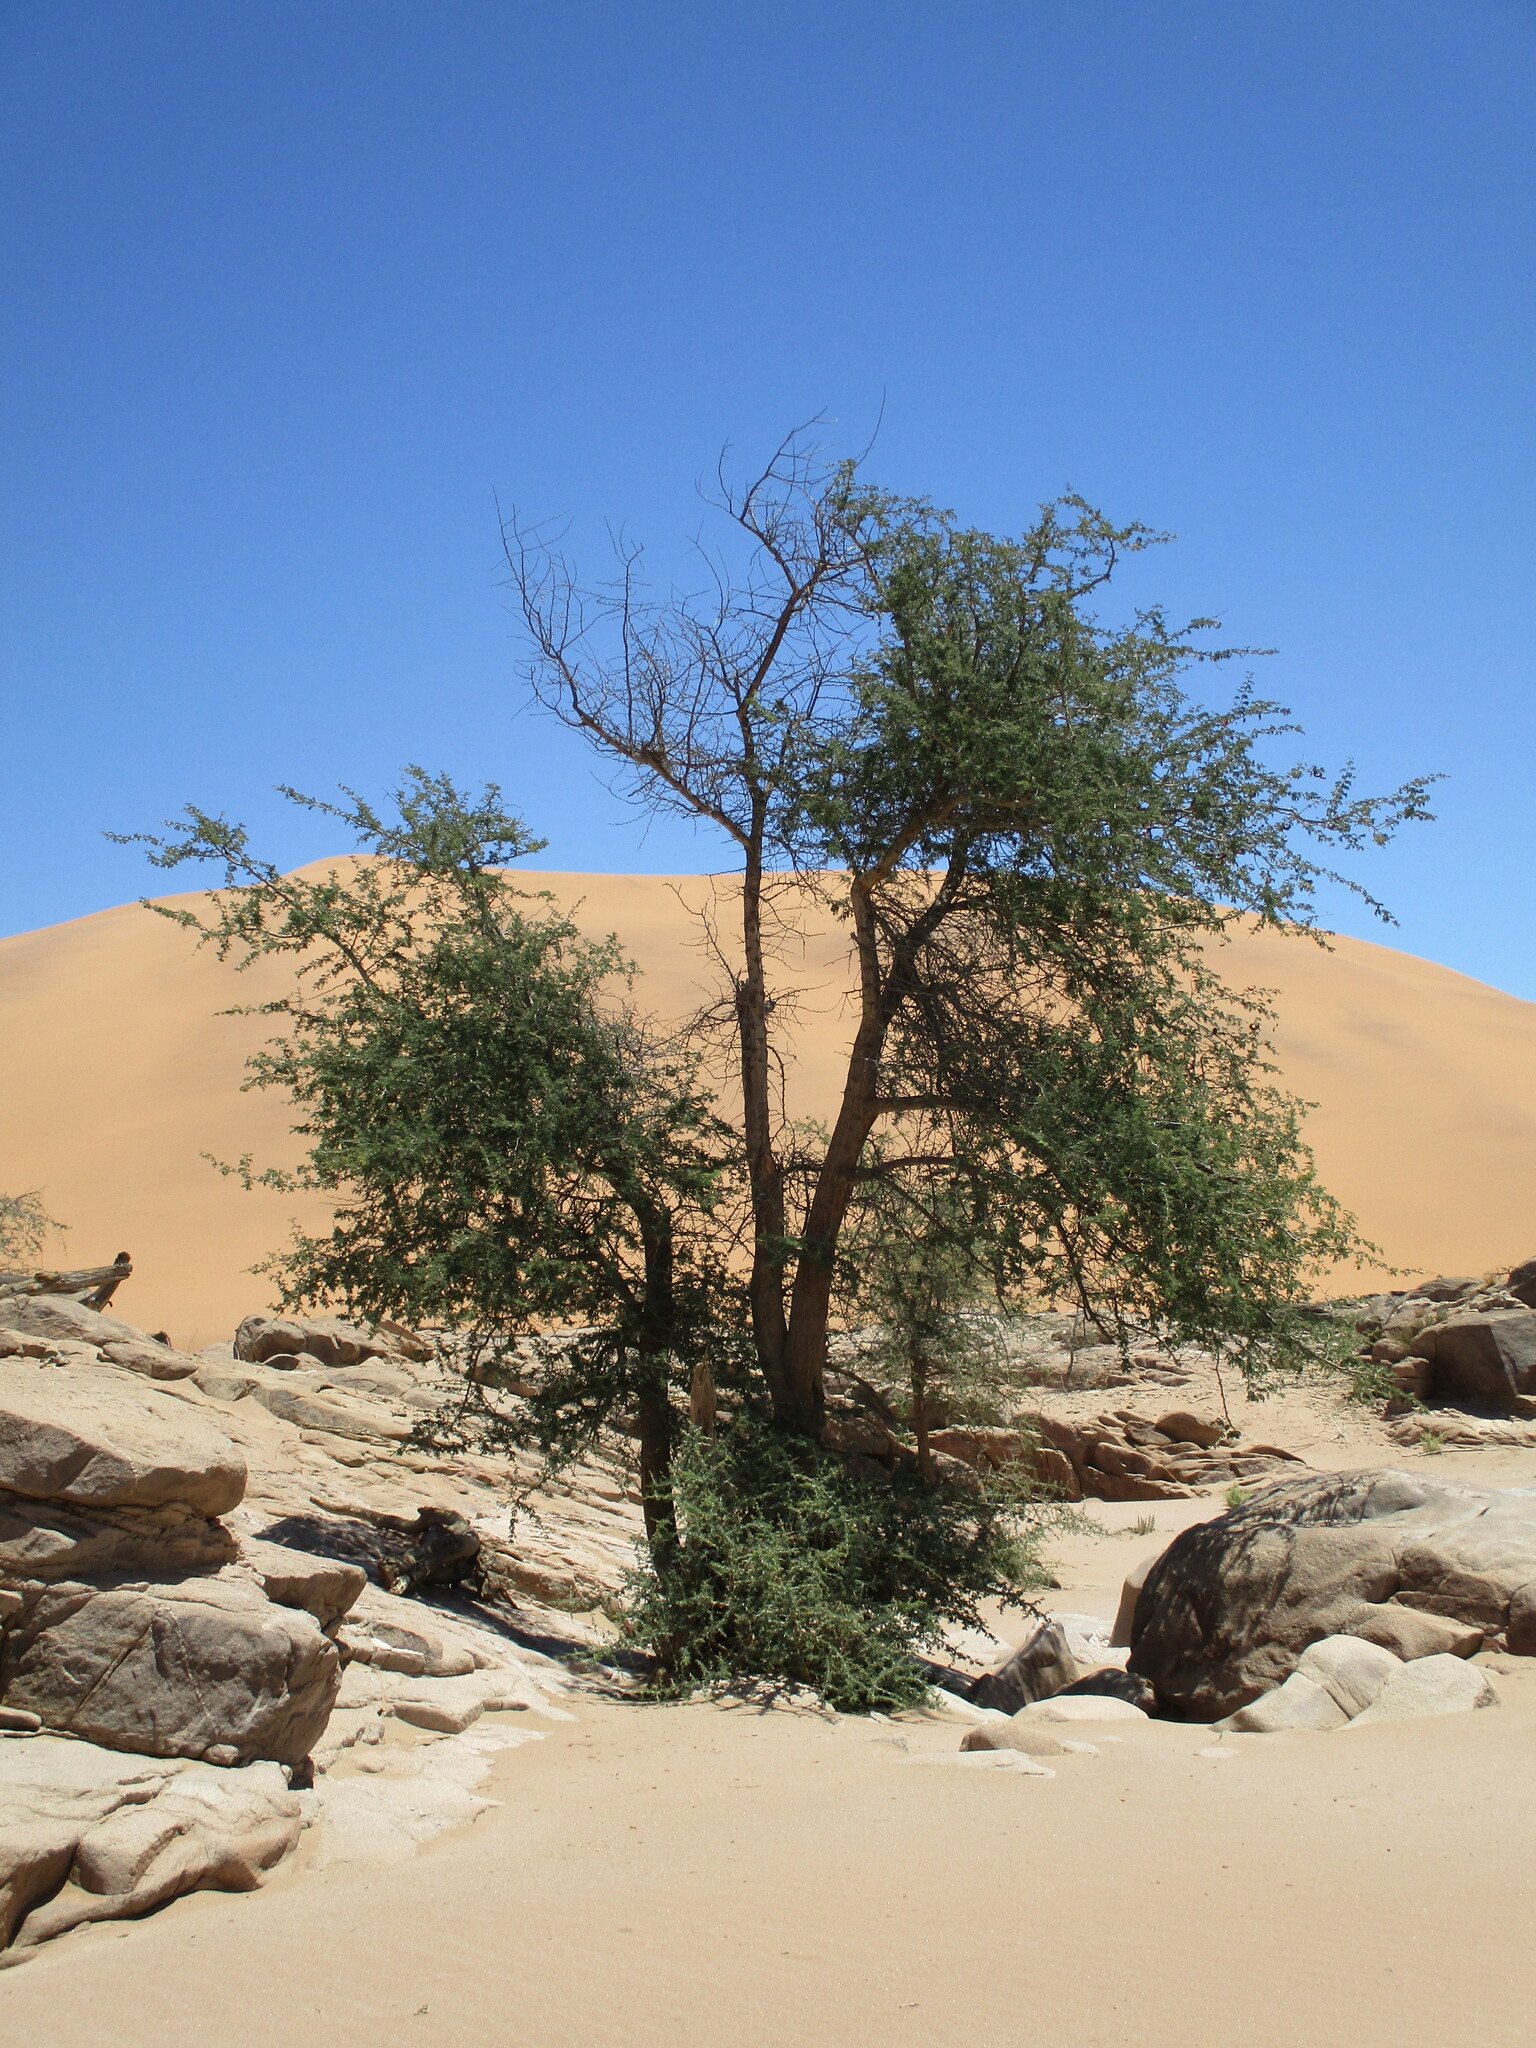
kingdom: Plantae
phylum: Tracheophyta
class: Magnoliopsida
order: Fabales
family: Fabaceae
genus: Faidherbia
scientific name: Faidherbia albida
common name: Anatree
